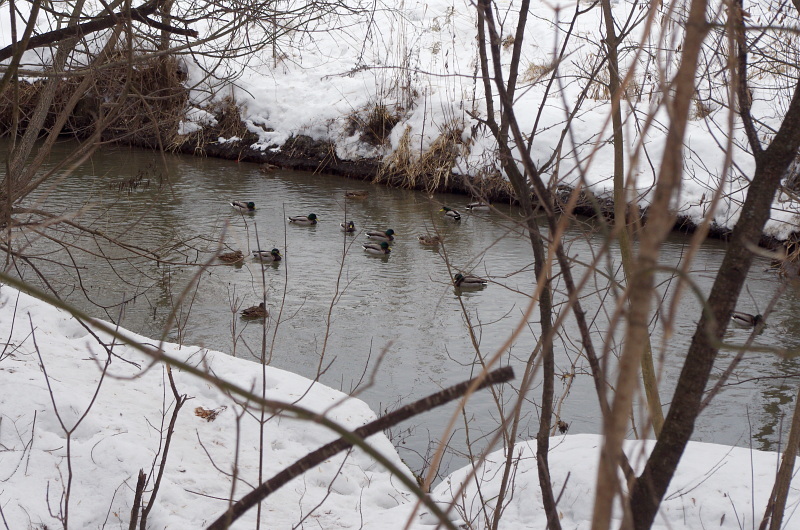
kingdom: Animalia
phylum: Chordata
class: Aves
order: Anseriformes
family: Anatidae
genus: Anas
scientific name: Anas platyrhynchos
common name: Mallard
